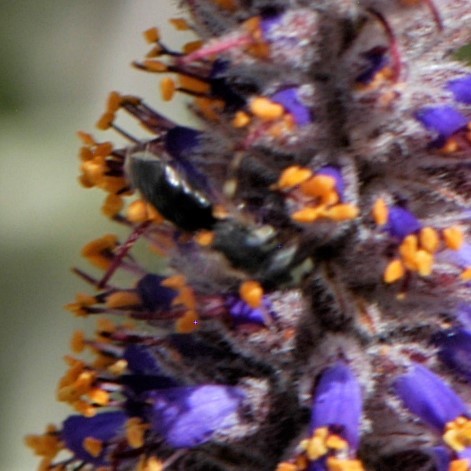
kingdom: Animalia
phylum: Arthropoda
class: Insecta
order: Hymenoptera
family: Colletidae
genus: Hylaeus
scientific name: Hylaeus
